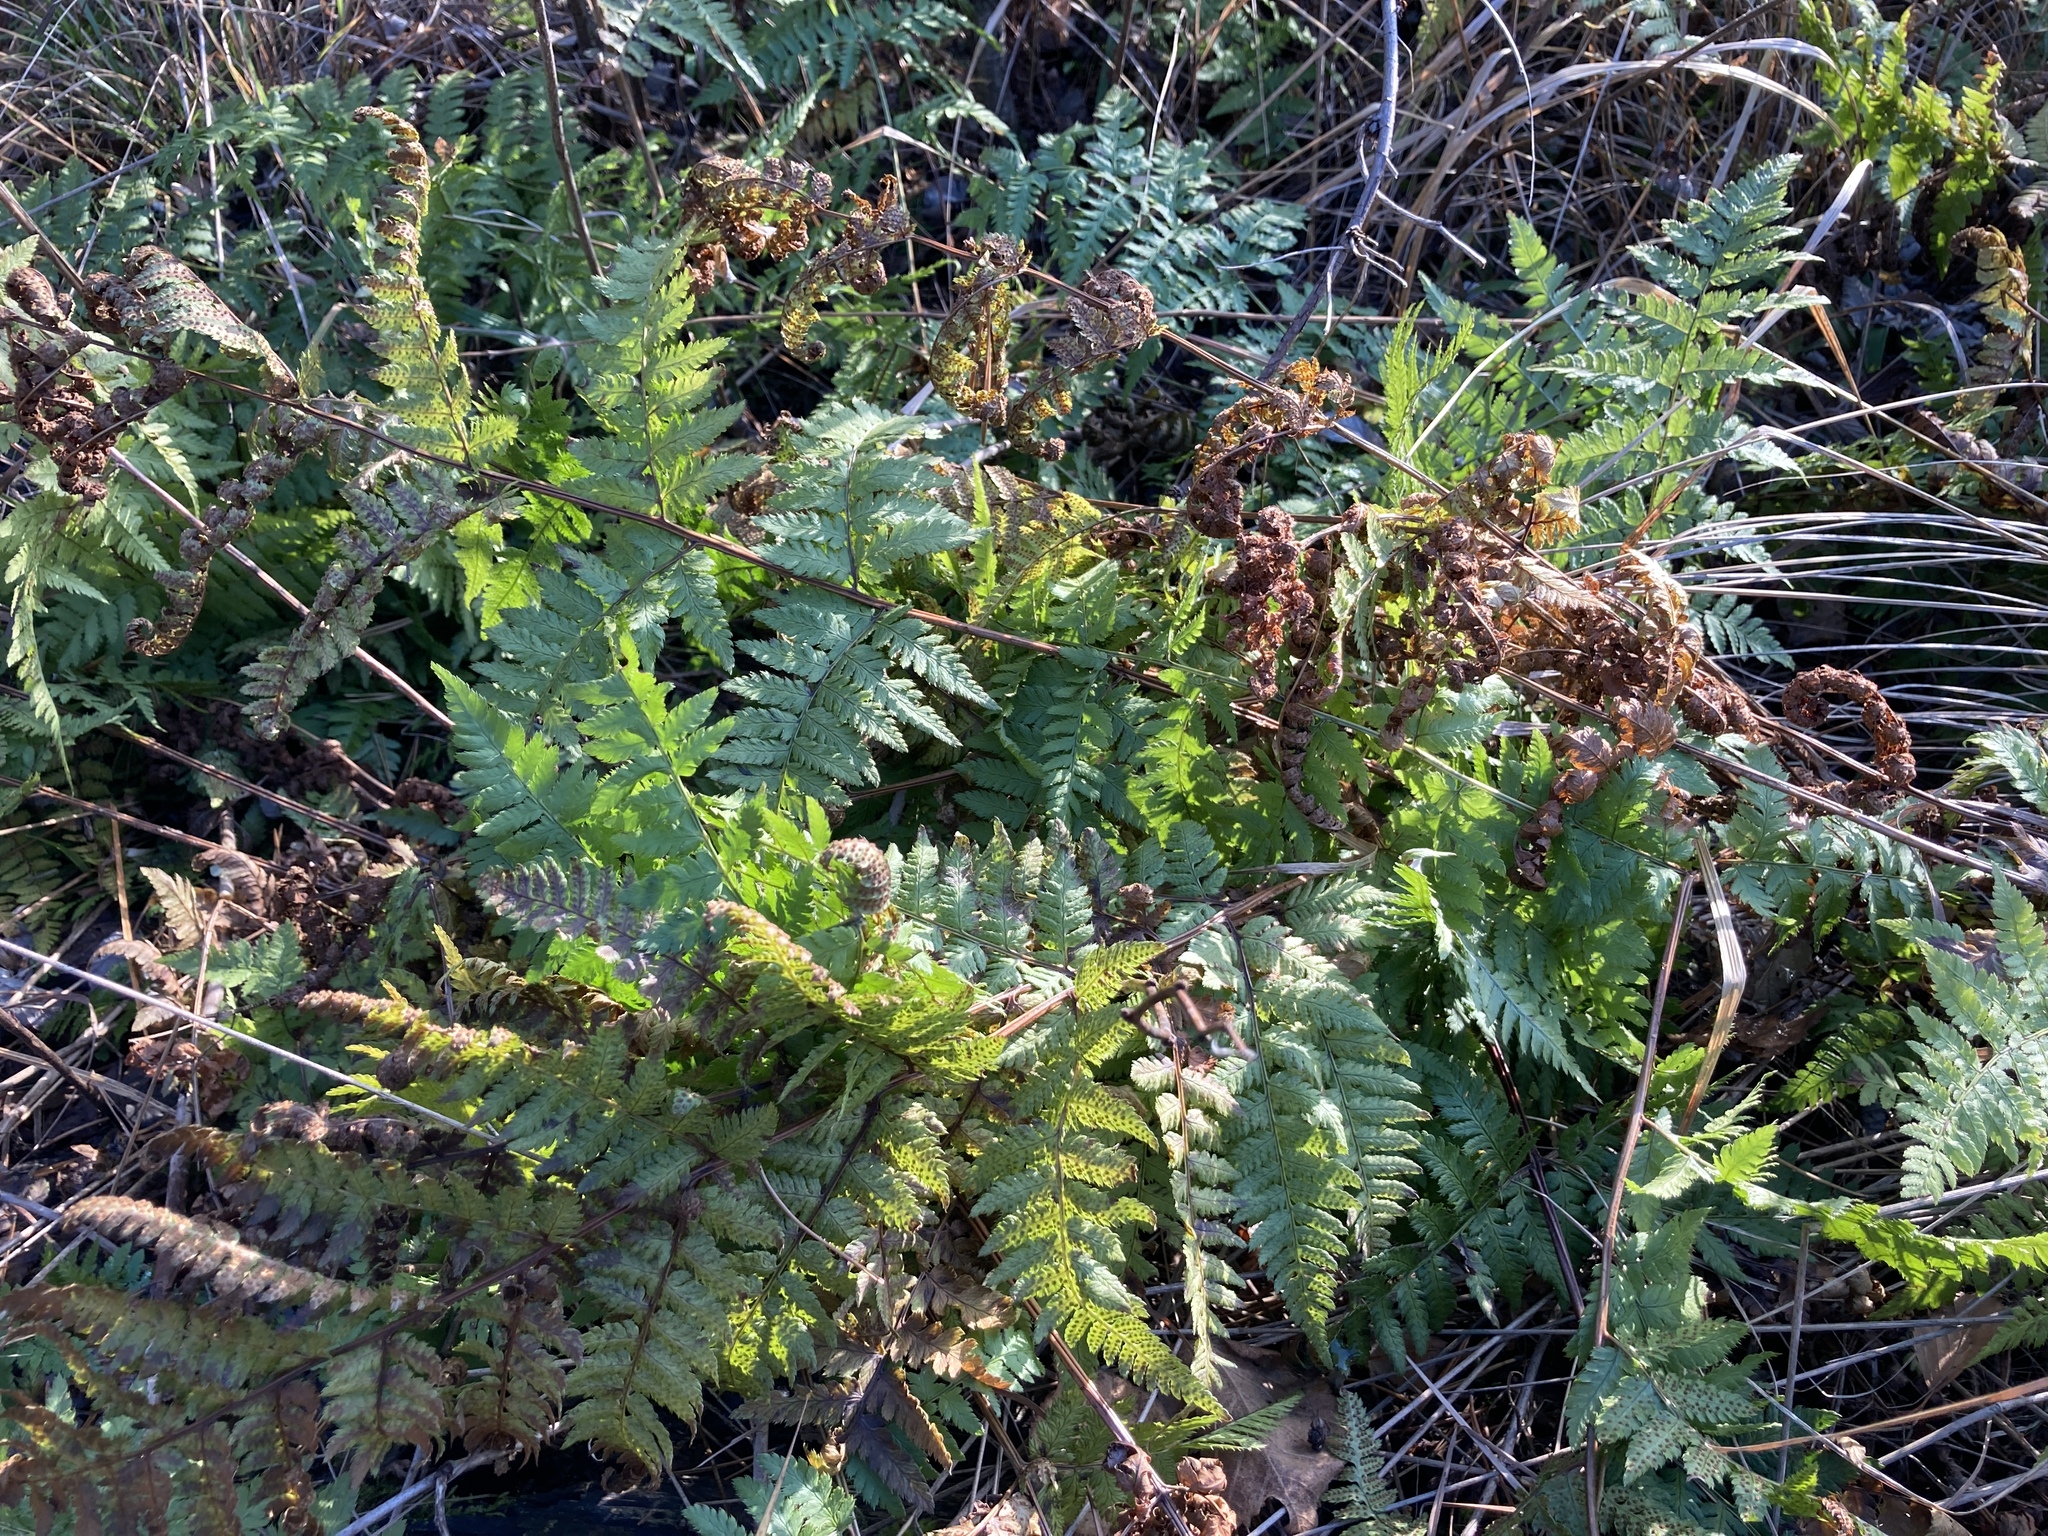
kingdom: Plantae
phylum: Tracheophyta
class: Polypodiopsida
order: Polypodiales
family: Dryopteridaceae
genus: Dryopteris
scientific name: Dryopteris carthusiana
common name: Narrow buckler-fern
